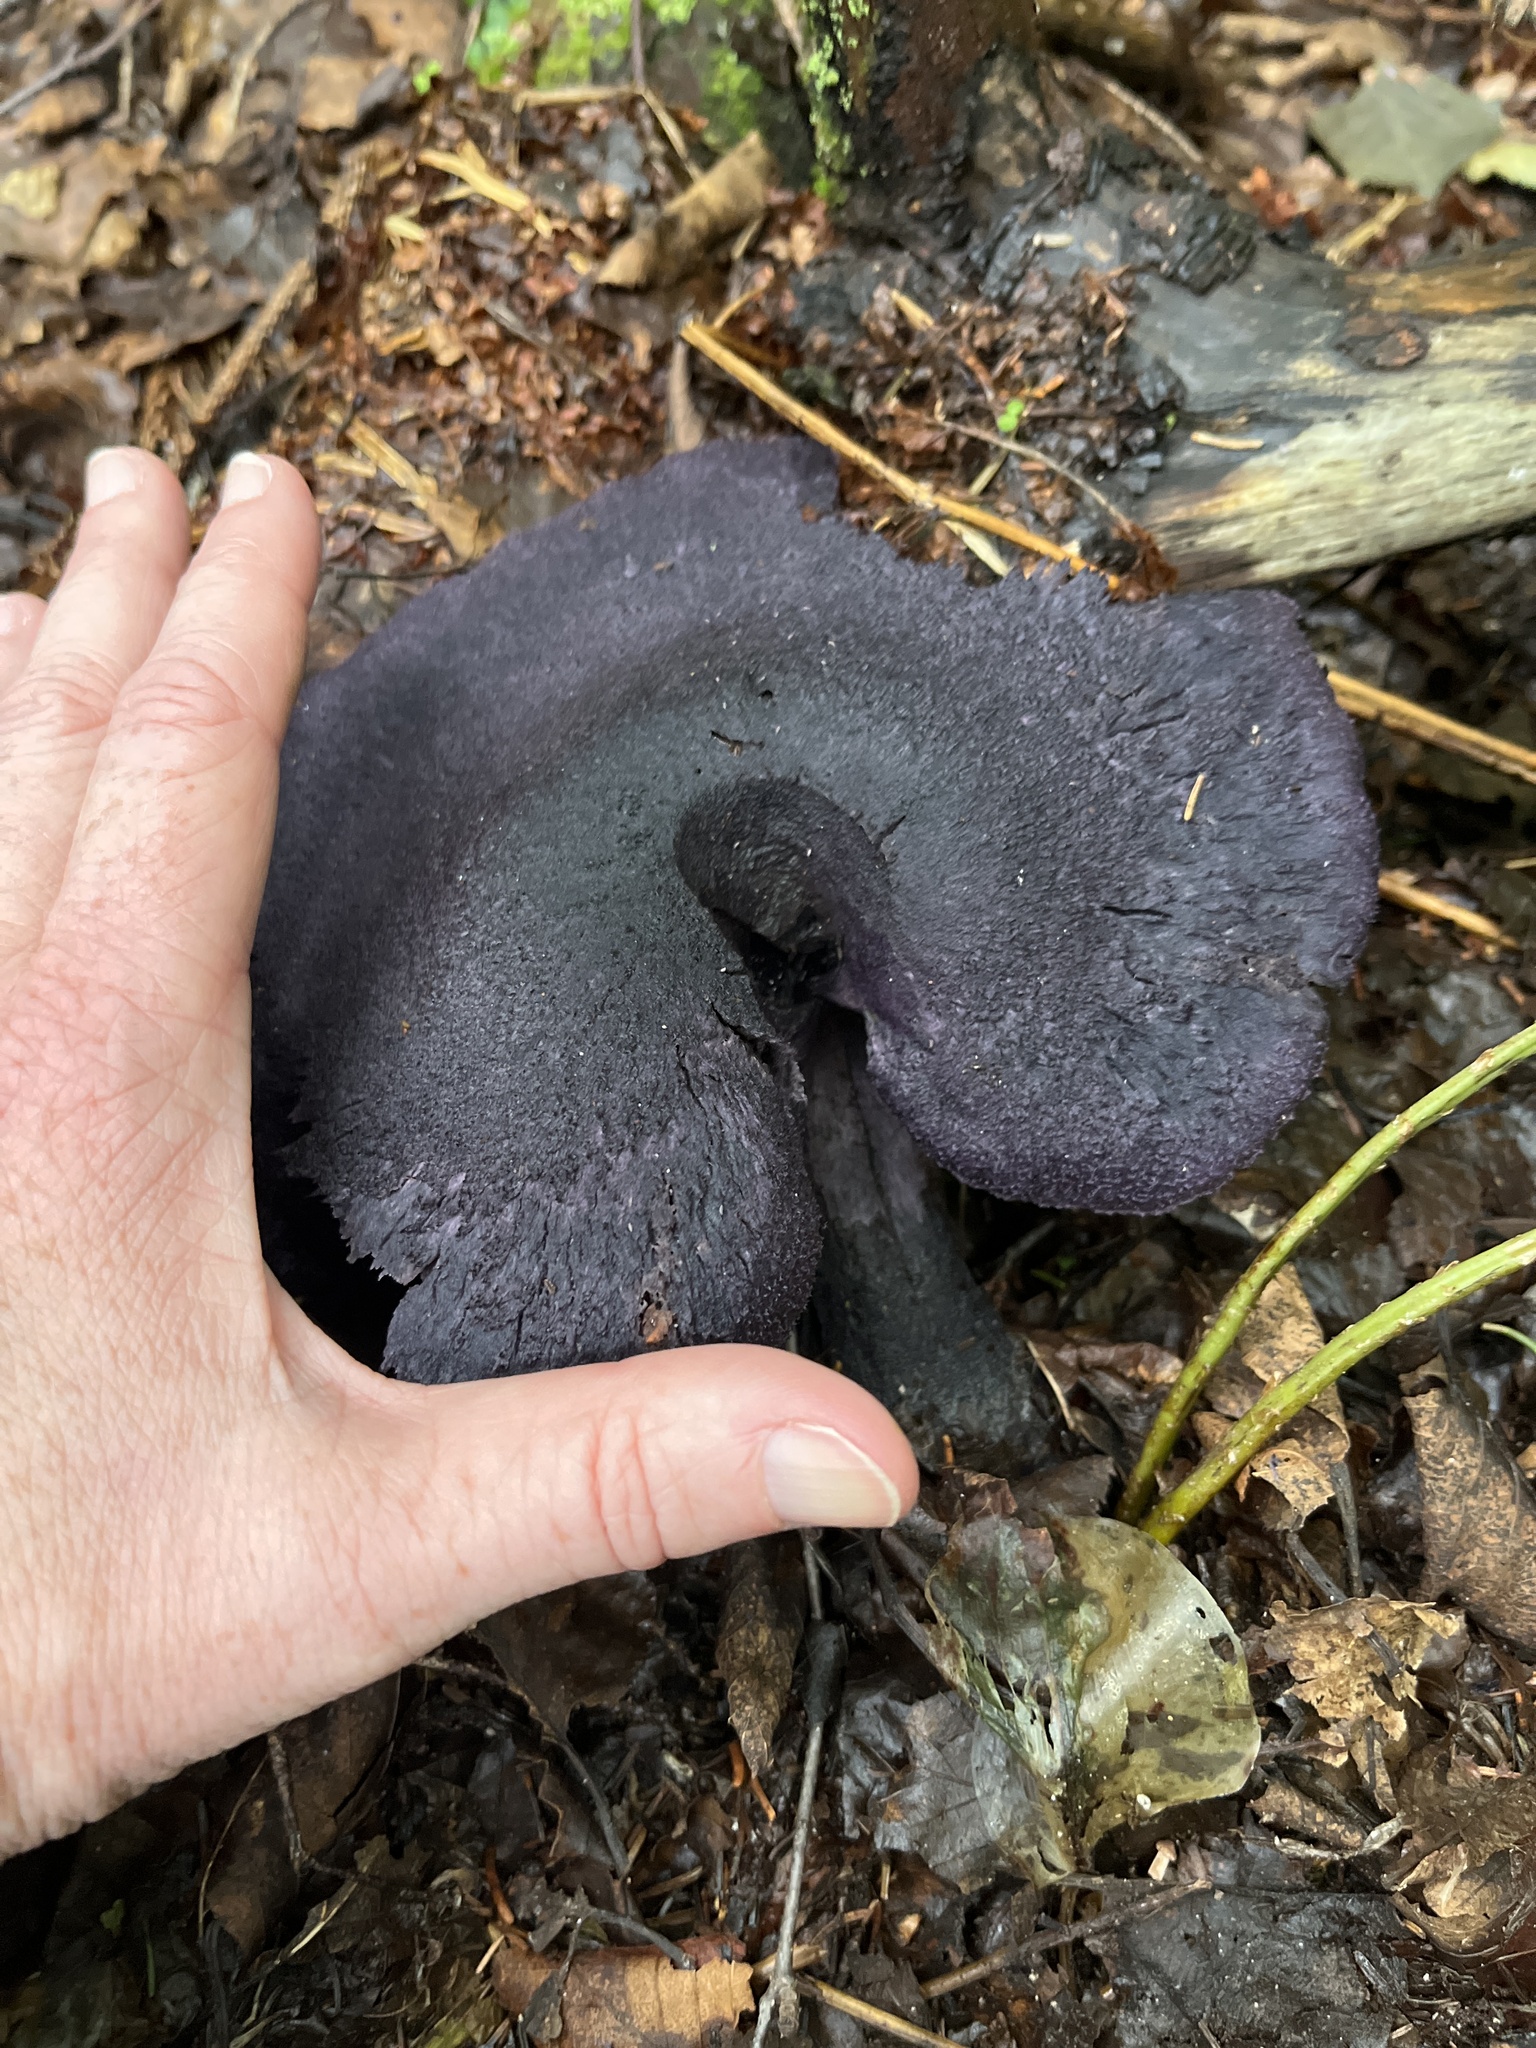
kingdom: Fungi
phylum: Basidiomycota
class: Agaricomycetes
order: Agaricales
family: Cortinariaceae
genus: Cortinarius
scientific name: Cortinarius violaceus
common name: Violet webcap
